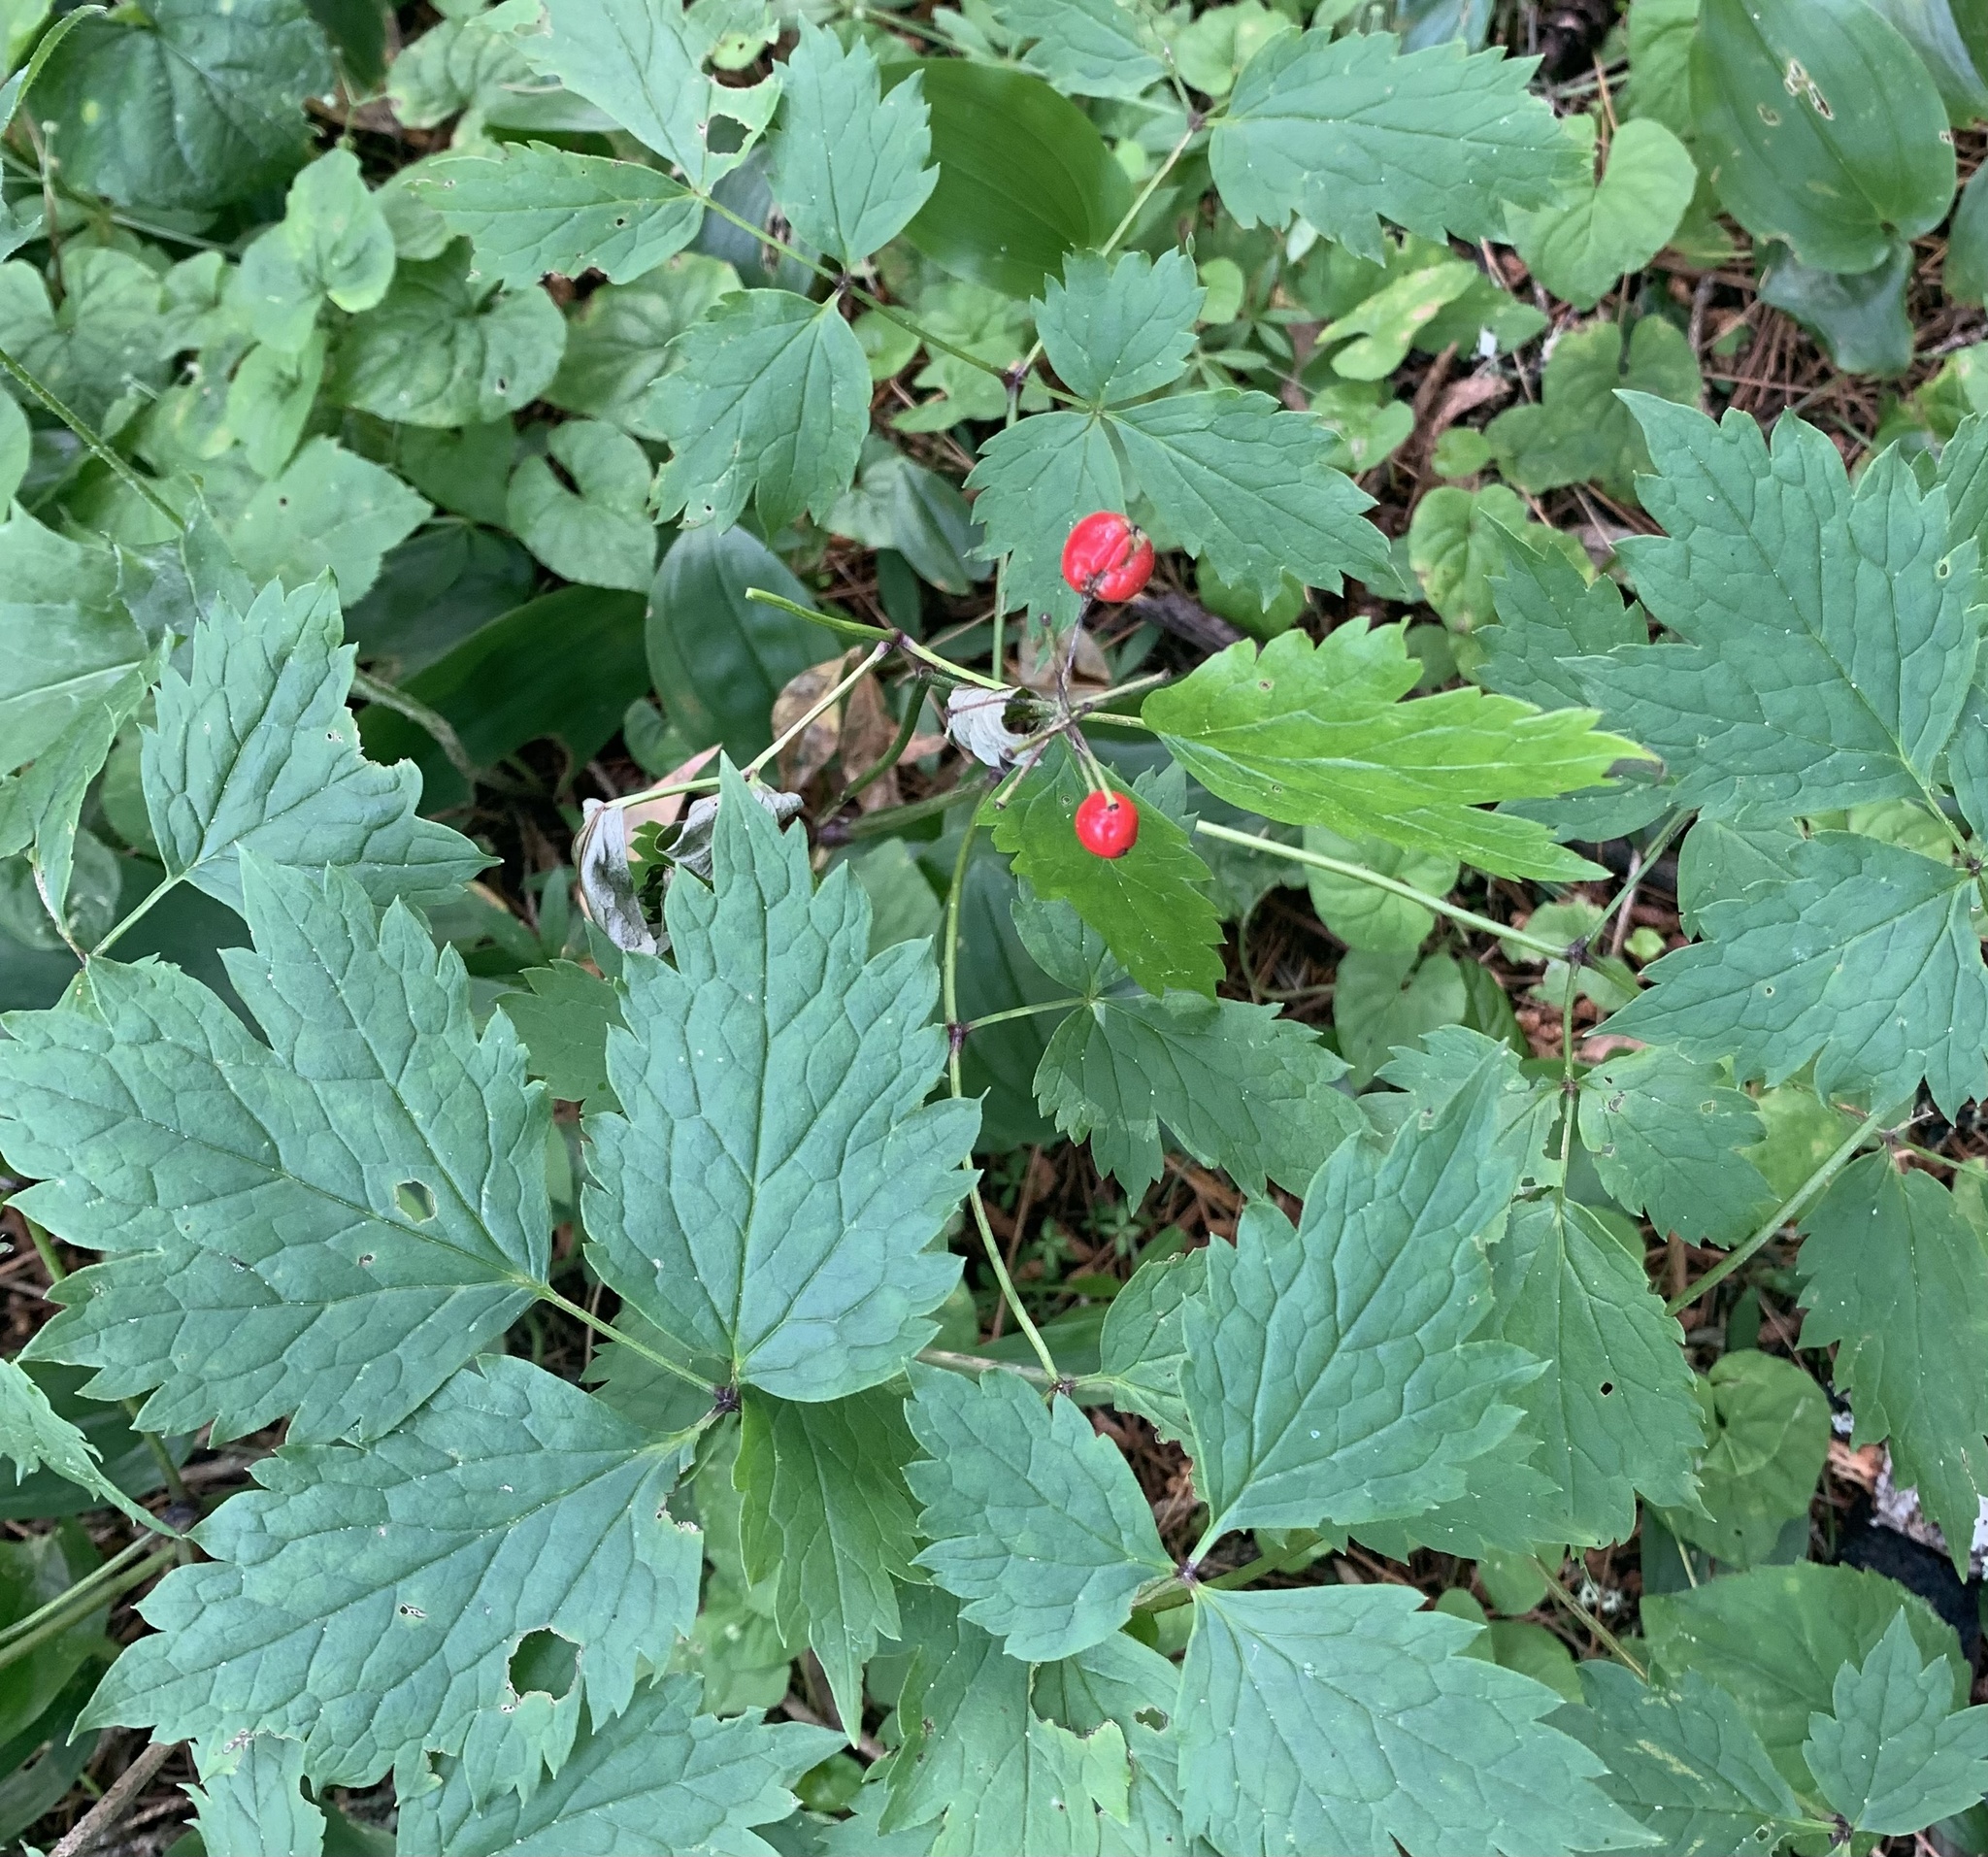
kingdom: Plantae
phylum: Tracheophyta
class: Magnoliopsida
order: Ranunculales
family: Ranunculaceae
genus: Actaea
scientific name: Actaea rubra
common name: Red baneberry
